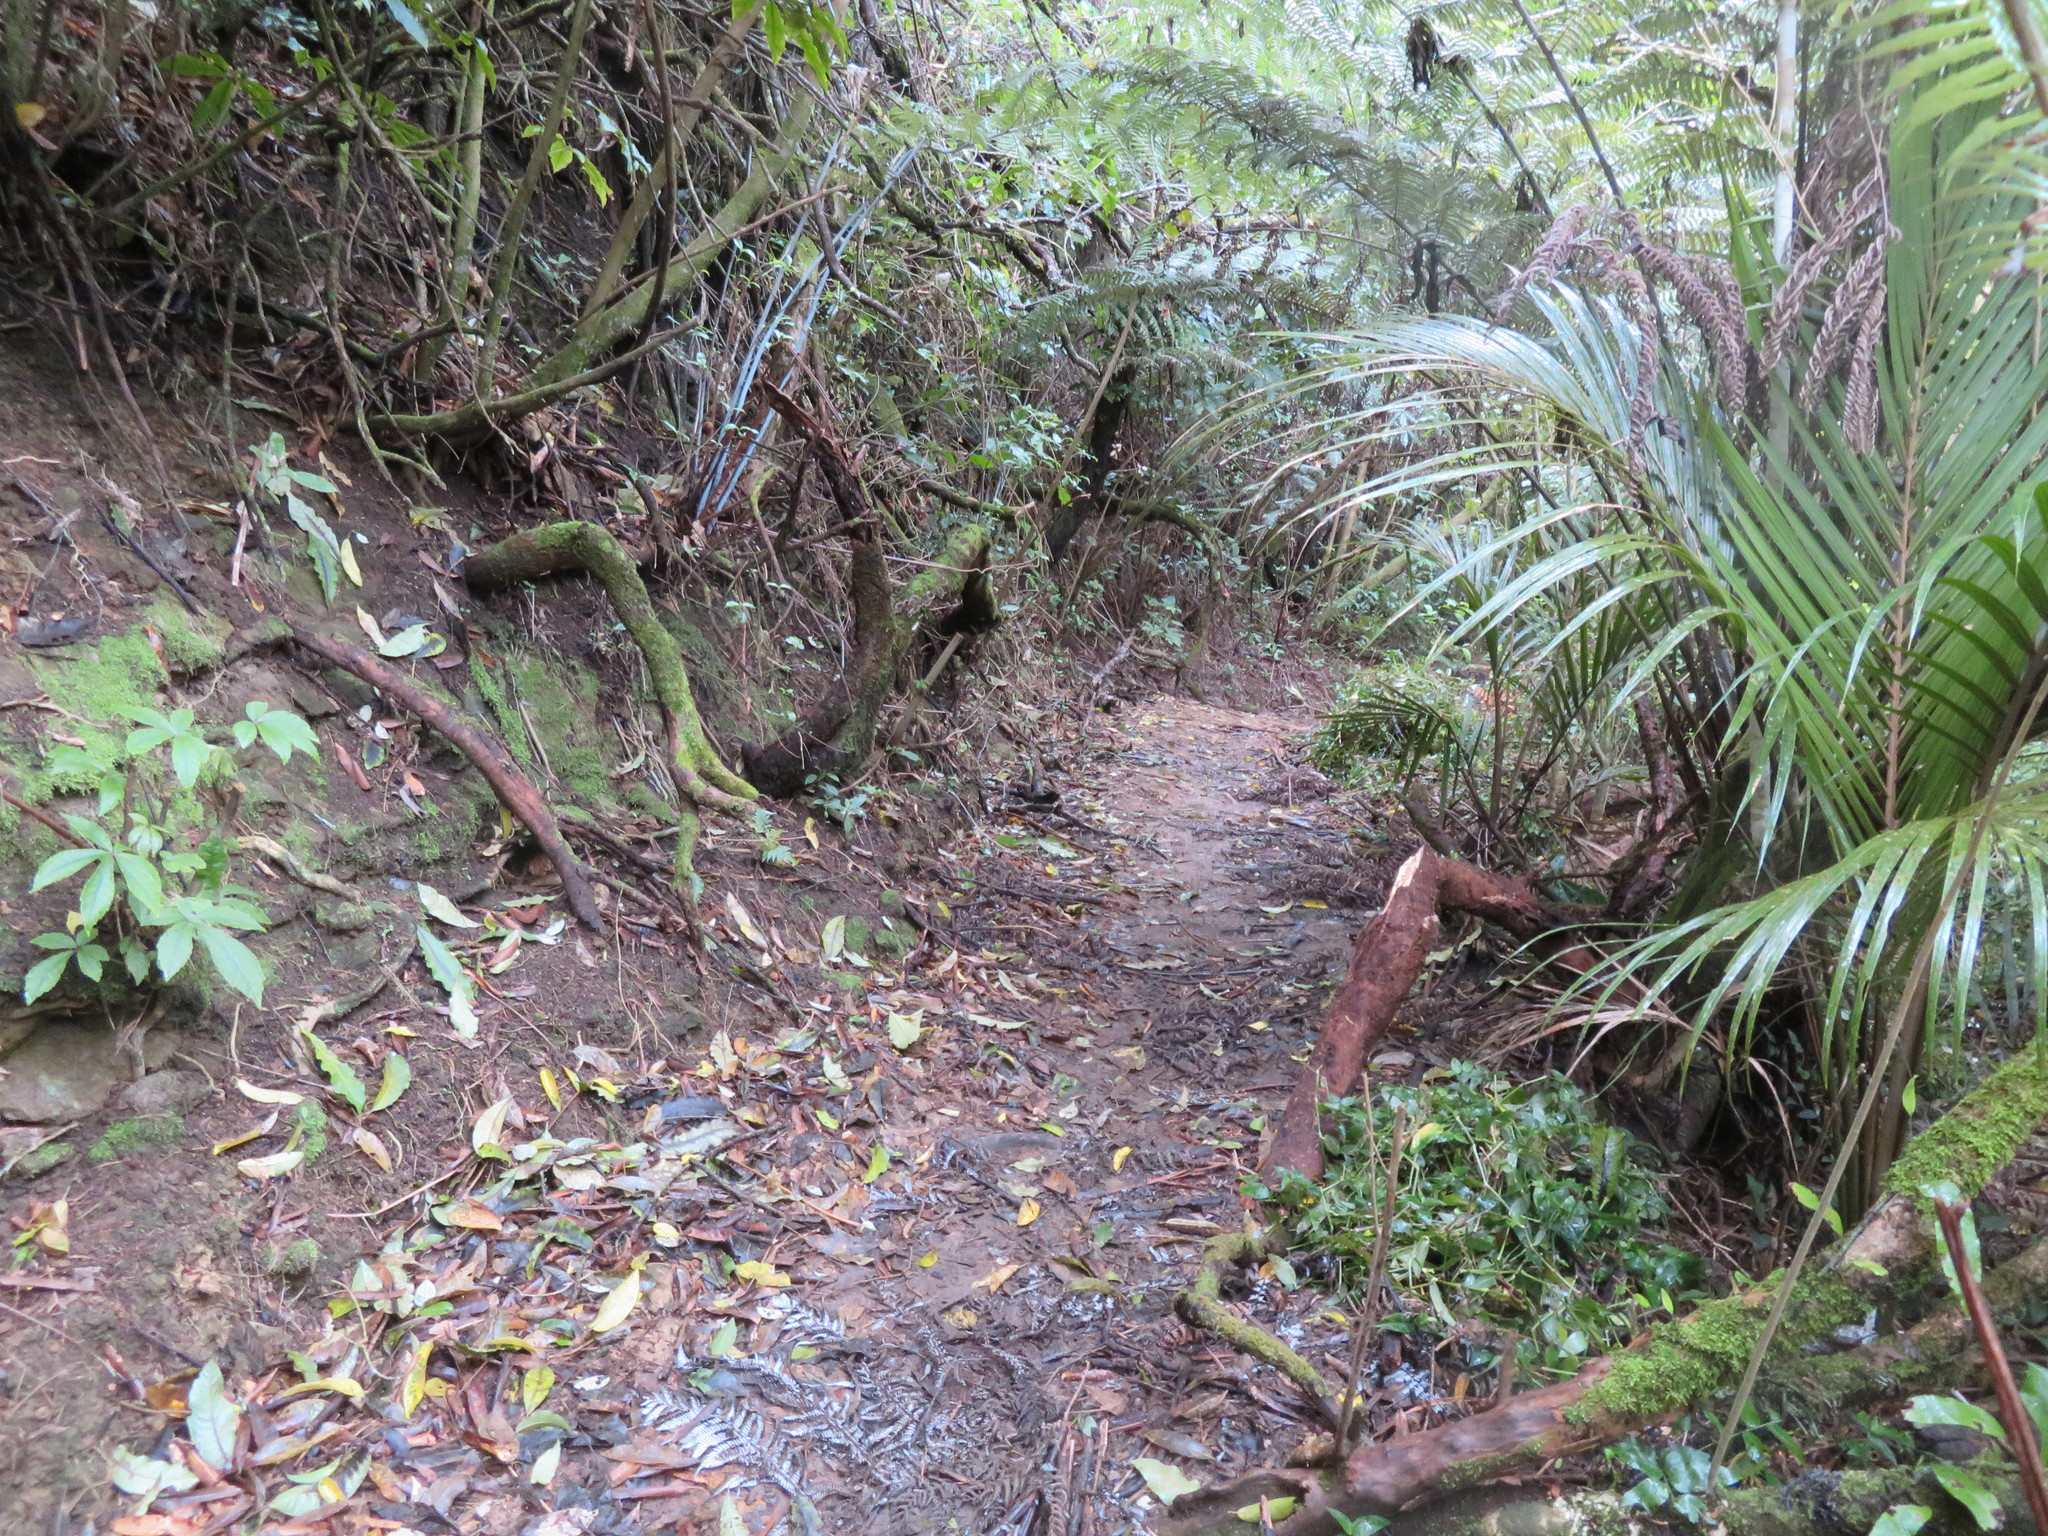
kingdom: Plantae
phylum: Tracheophyta
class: Magnoliopsida
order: Apiales
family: Araliaceae
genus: Schefflera
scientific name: Schefflera digitata
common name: Pate
